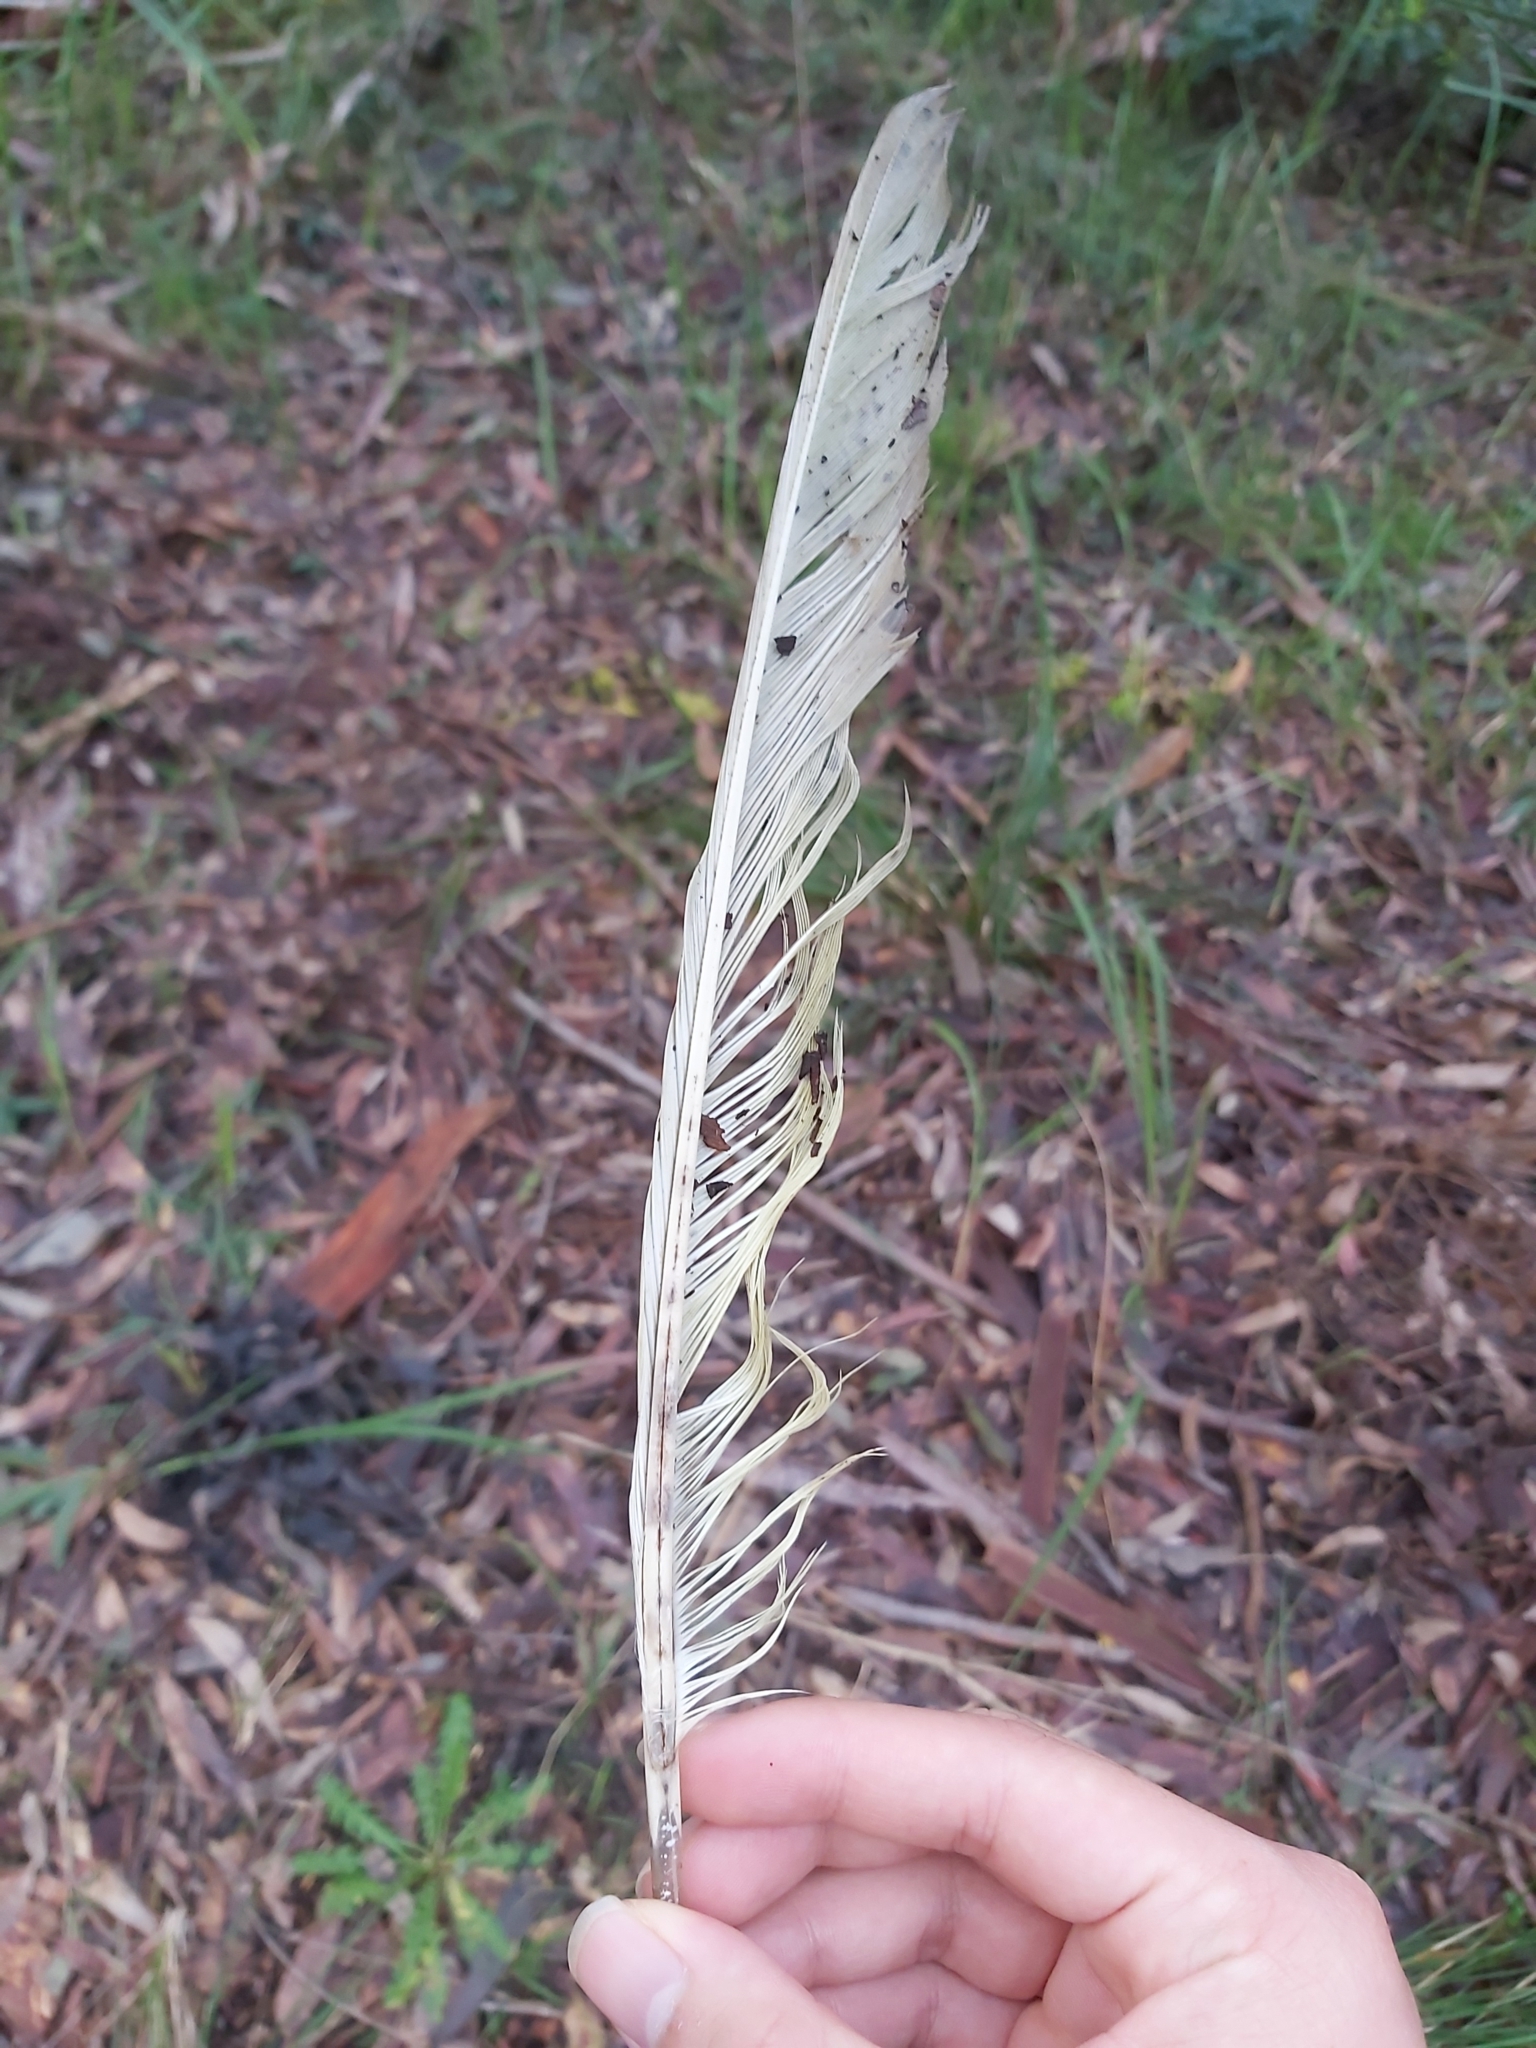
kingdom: Animalia
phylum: Chordata
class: Aves
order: Psittaciformes
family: Psittacidae
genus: Cacatua
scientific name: Cacatua galerita
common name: Sulphur-crested cockatoo
